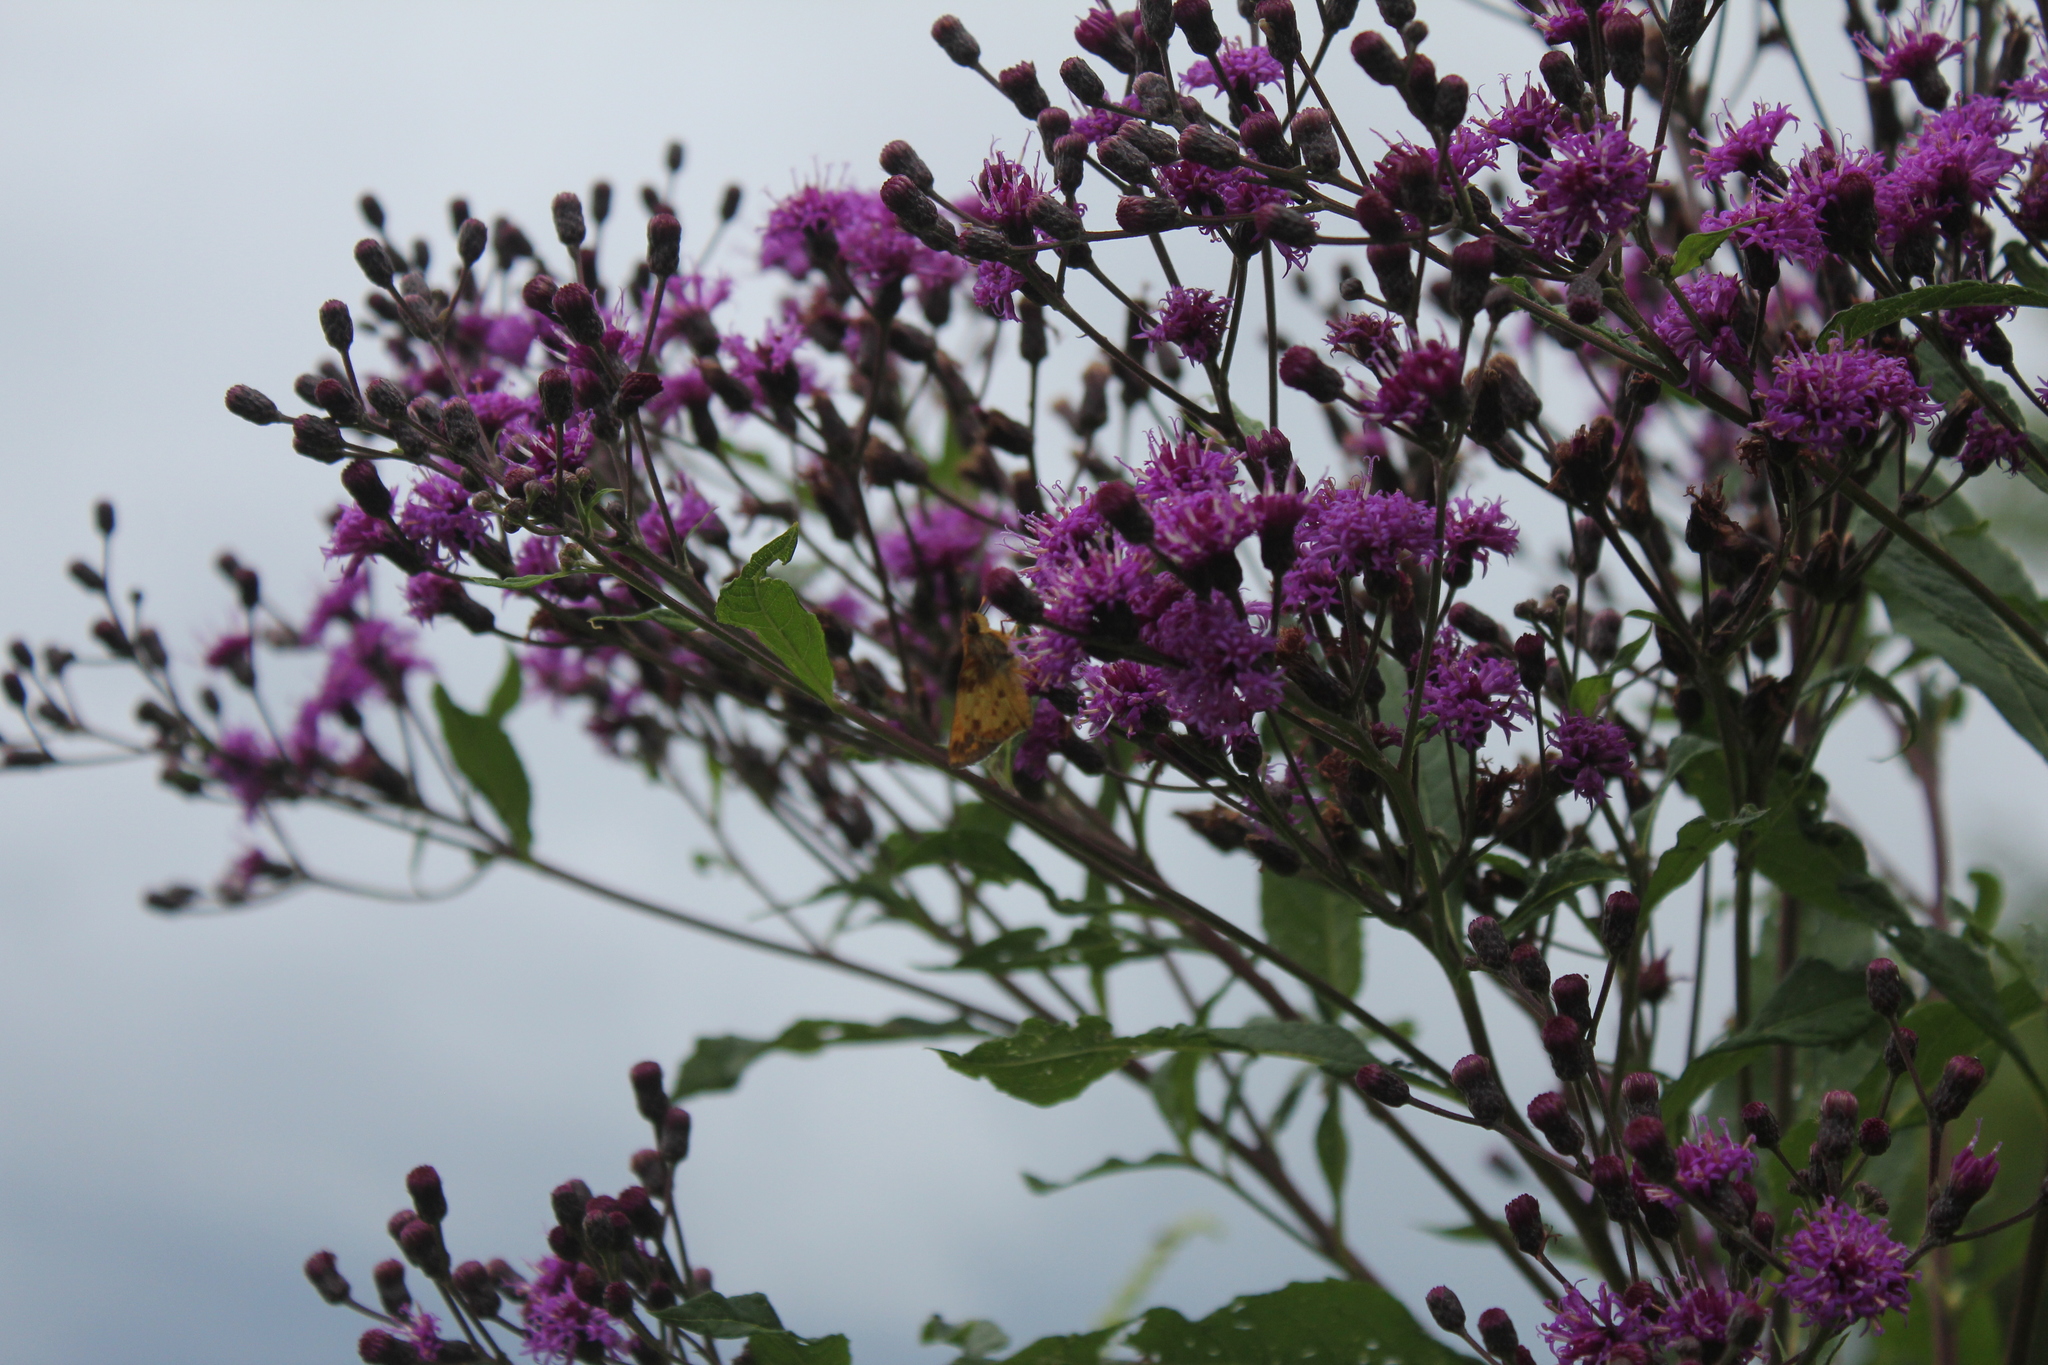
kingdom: Animalia
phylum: Arthropoda
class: Insecta
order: Lepidoptera
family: Hesperiidae
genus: Polites
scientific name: Polites coras
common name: Peck's skipper
